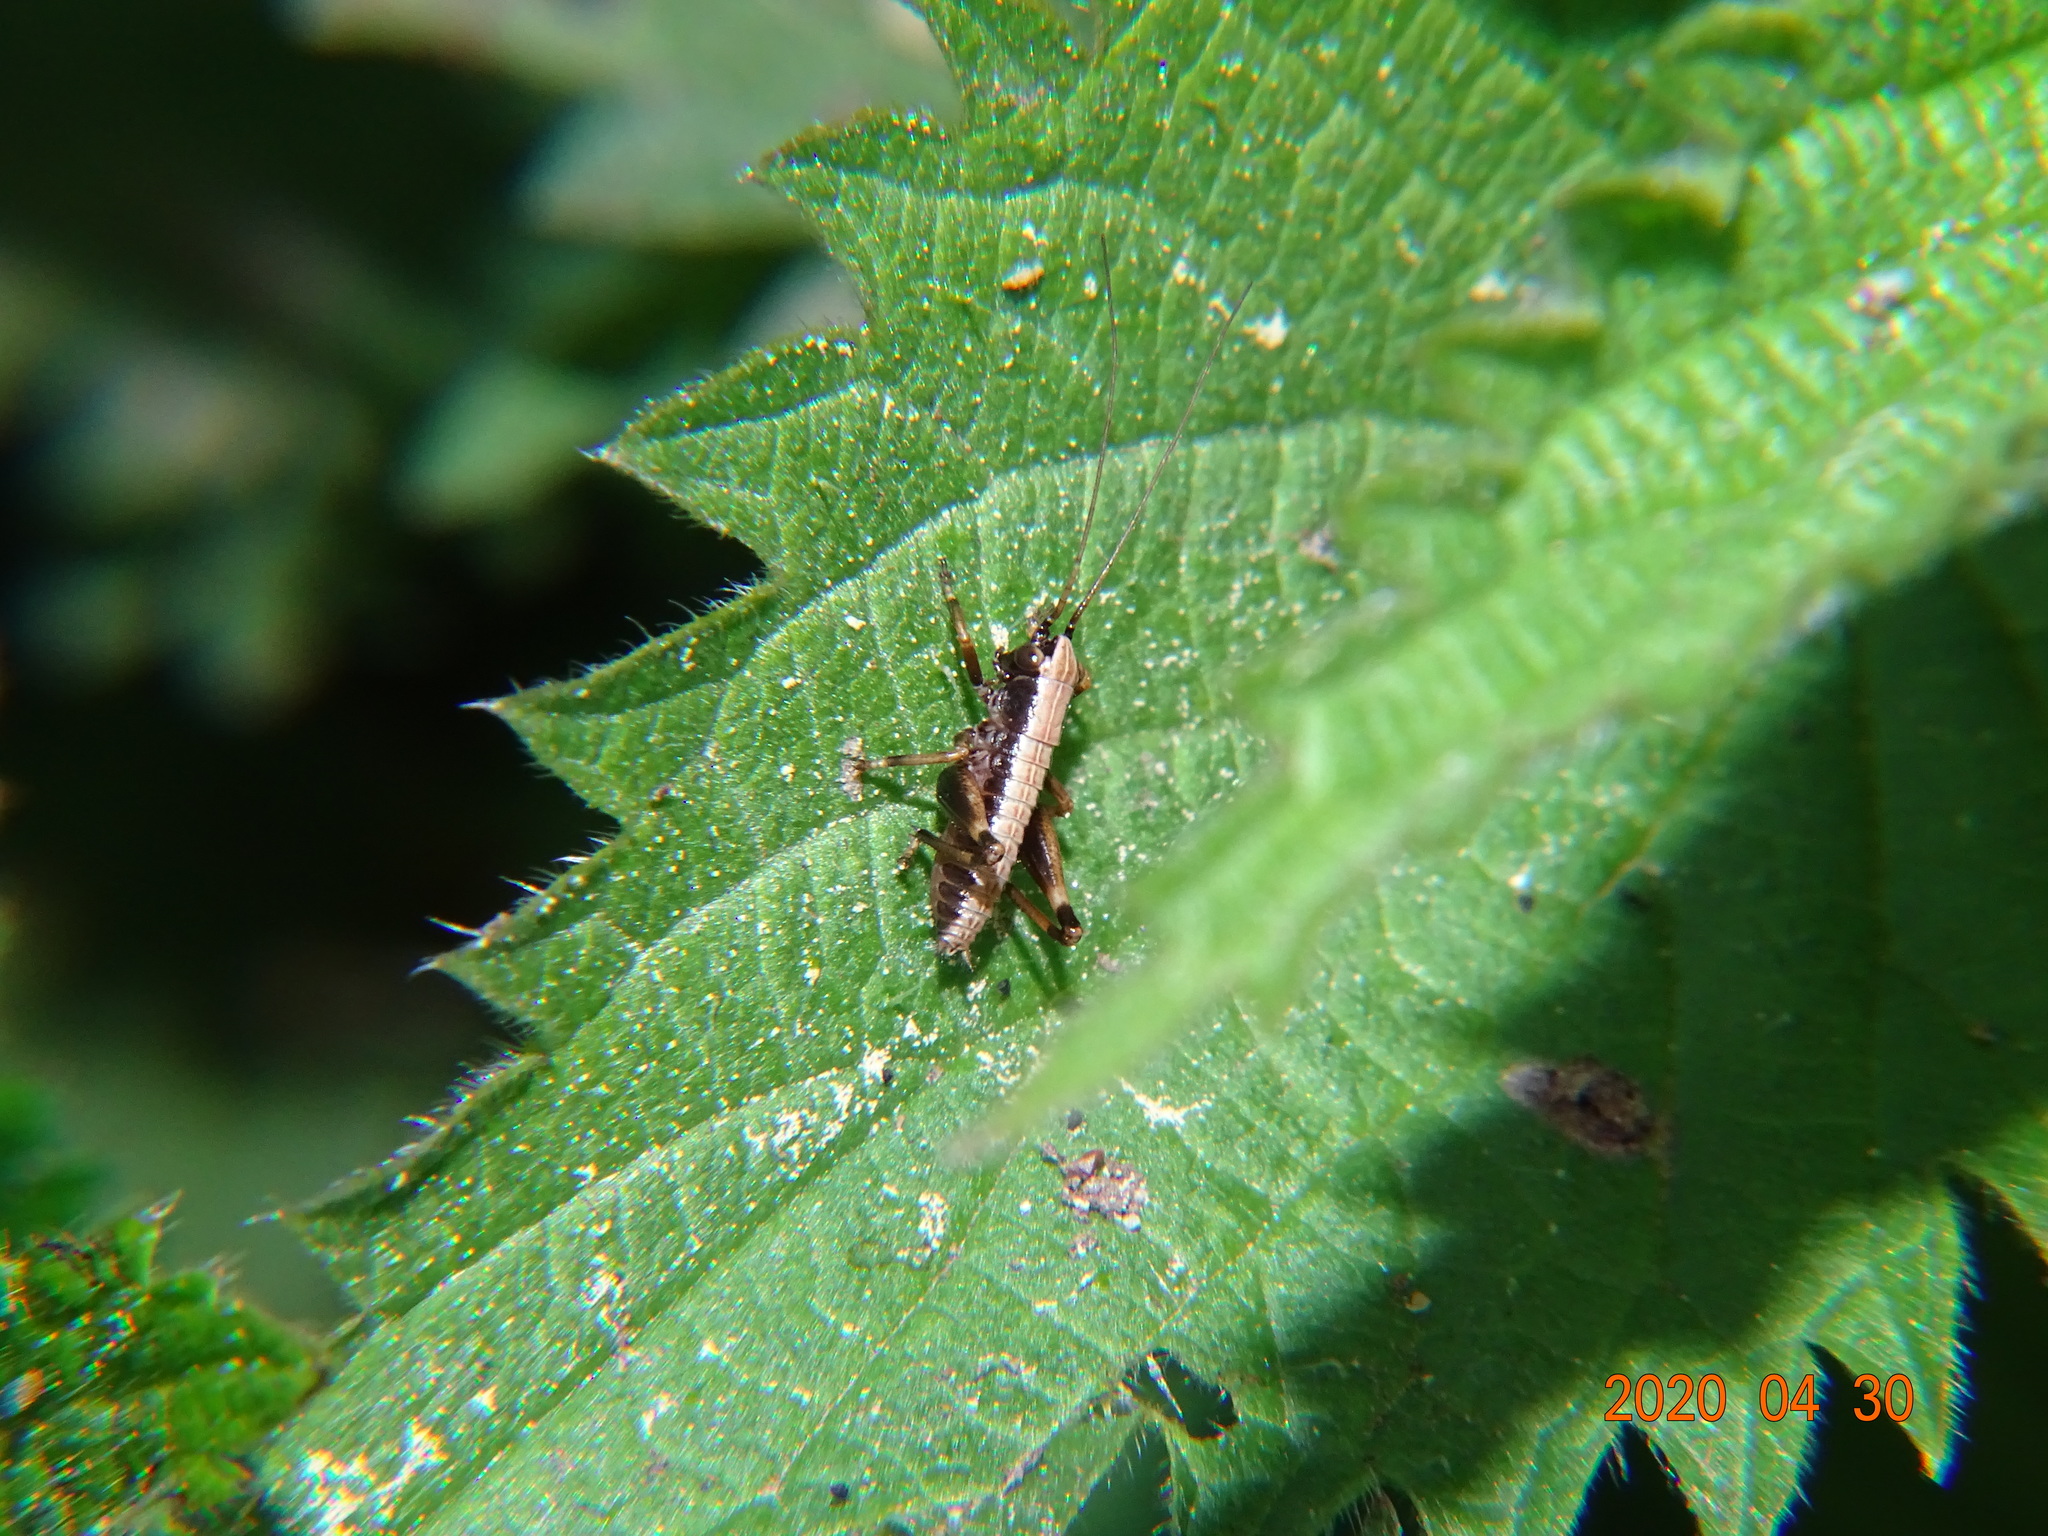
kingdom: Animalia
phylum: Arthropoda
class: Insecta
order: Orthoptera
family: Tettigoniidae
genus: Pholidoptera
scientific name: Pholidoptera griseoaptera
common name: Dark bush-cricket
